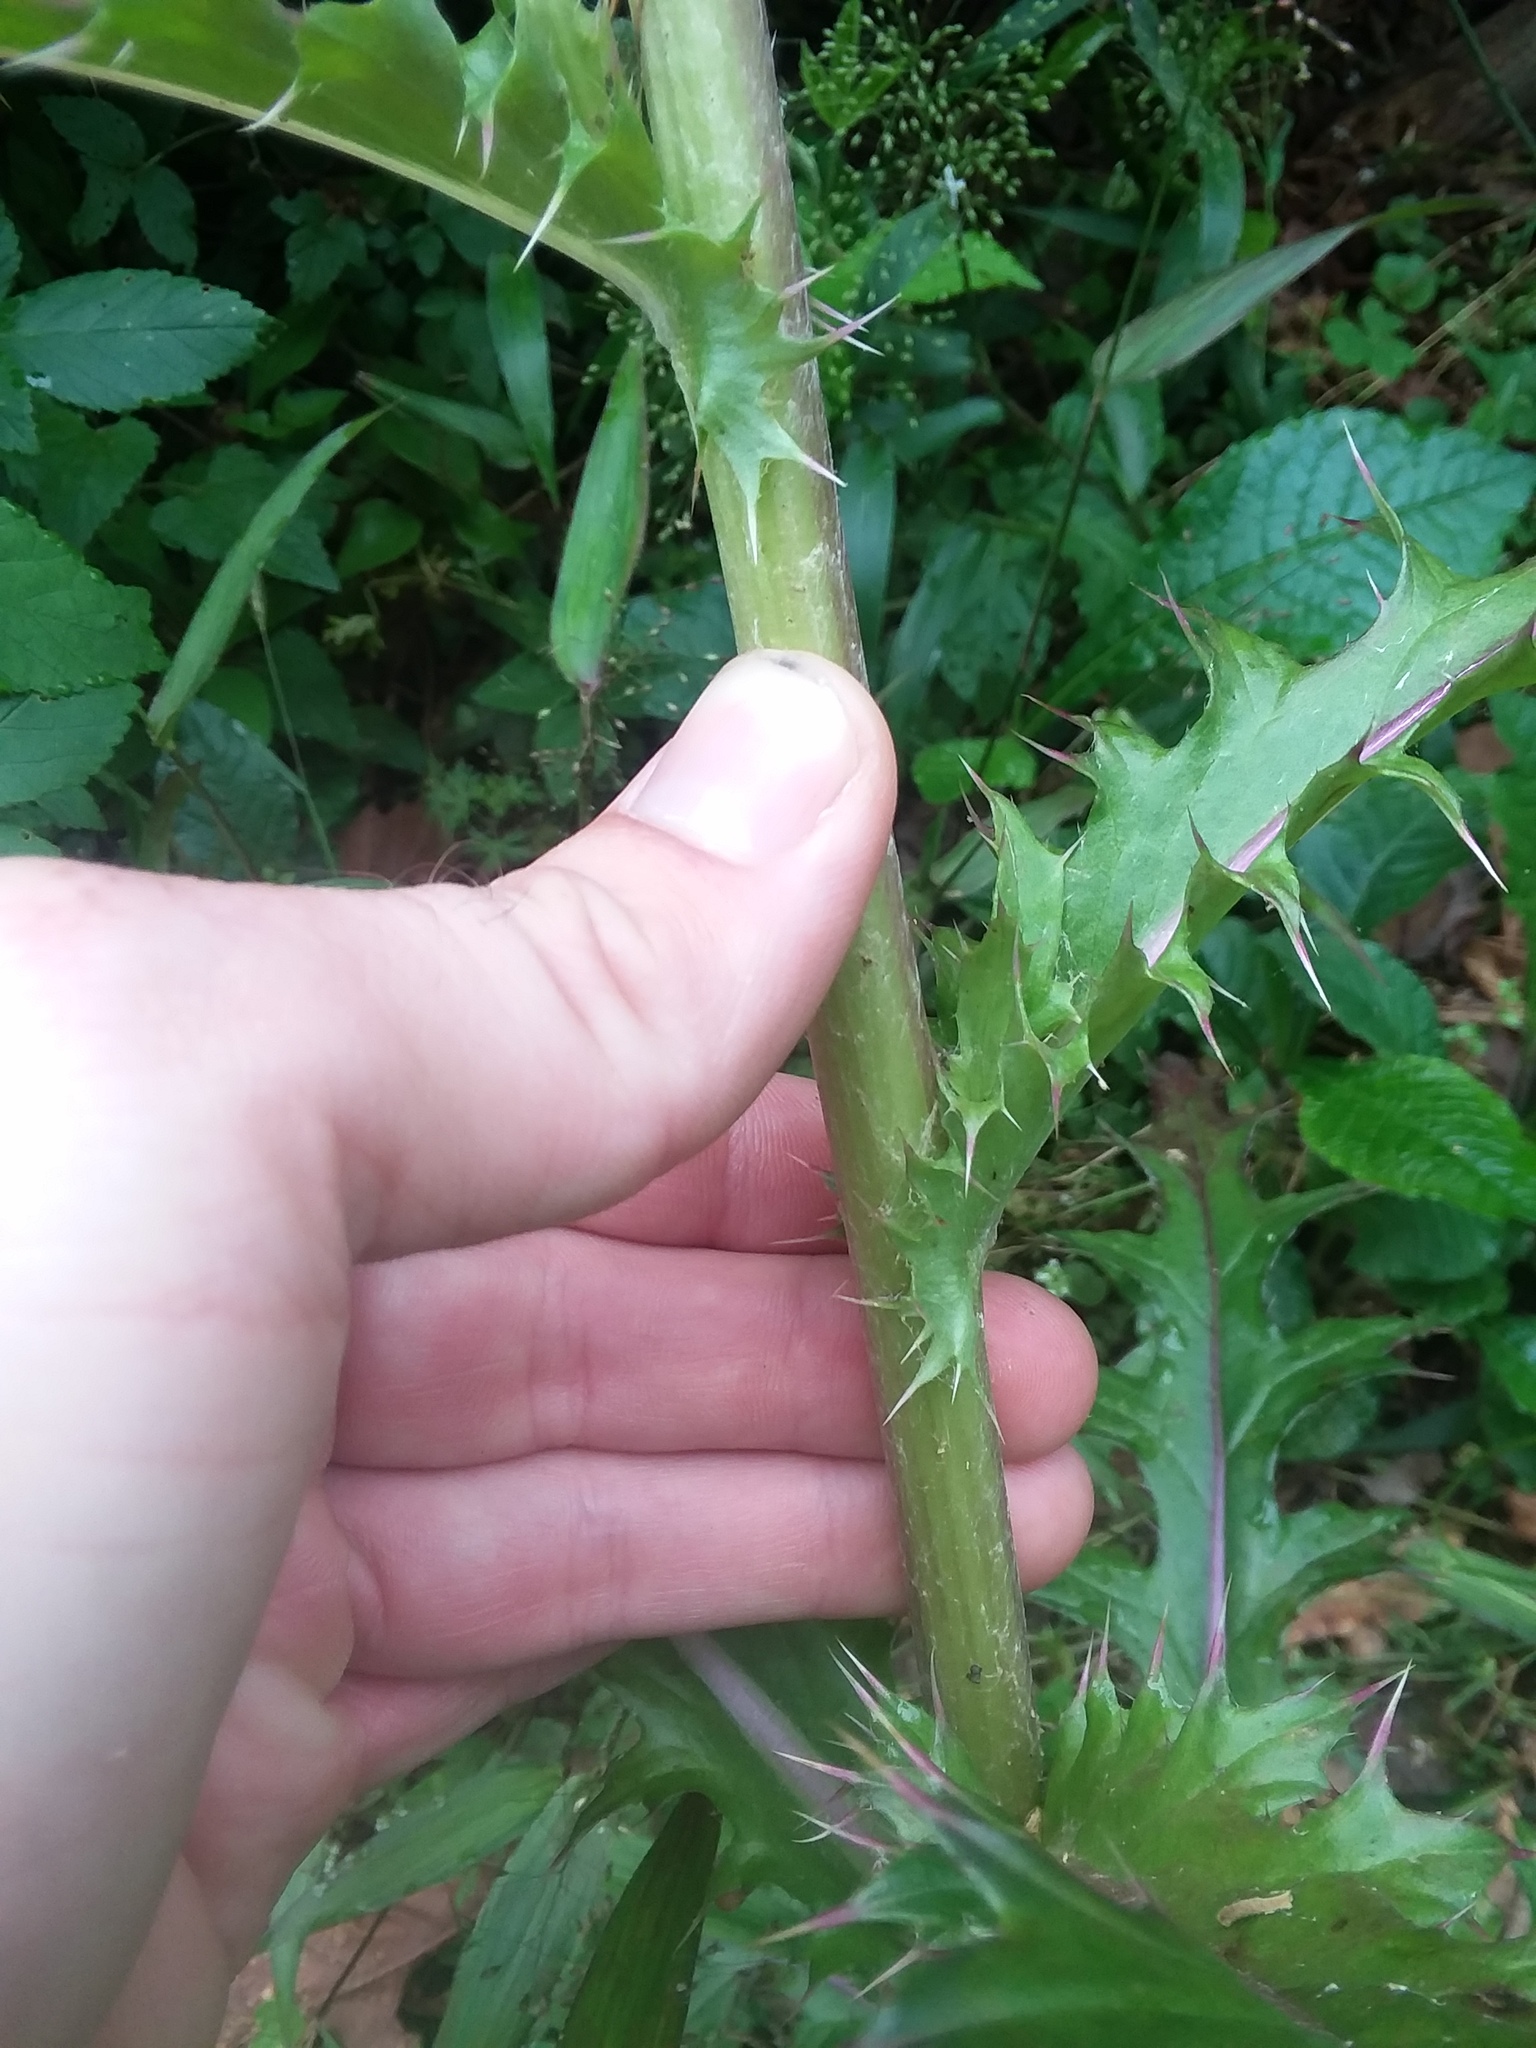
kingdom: Plantae
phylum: Tracheophyta
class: Magnoliopsida
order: Asterales
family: Asteraceae
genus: Cirsium
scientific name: Cirsium horridulum
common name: Bristly thistle
